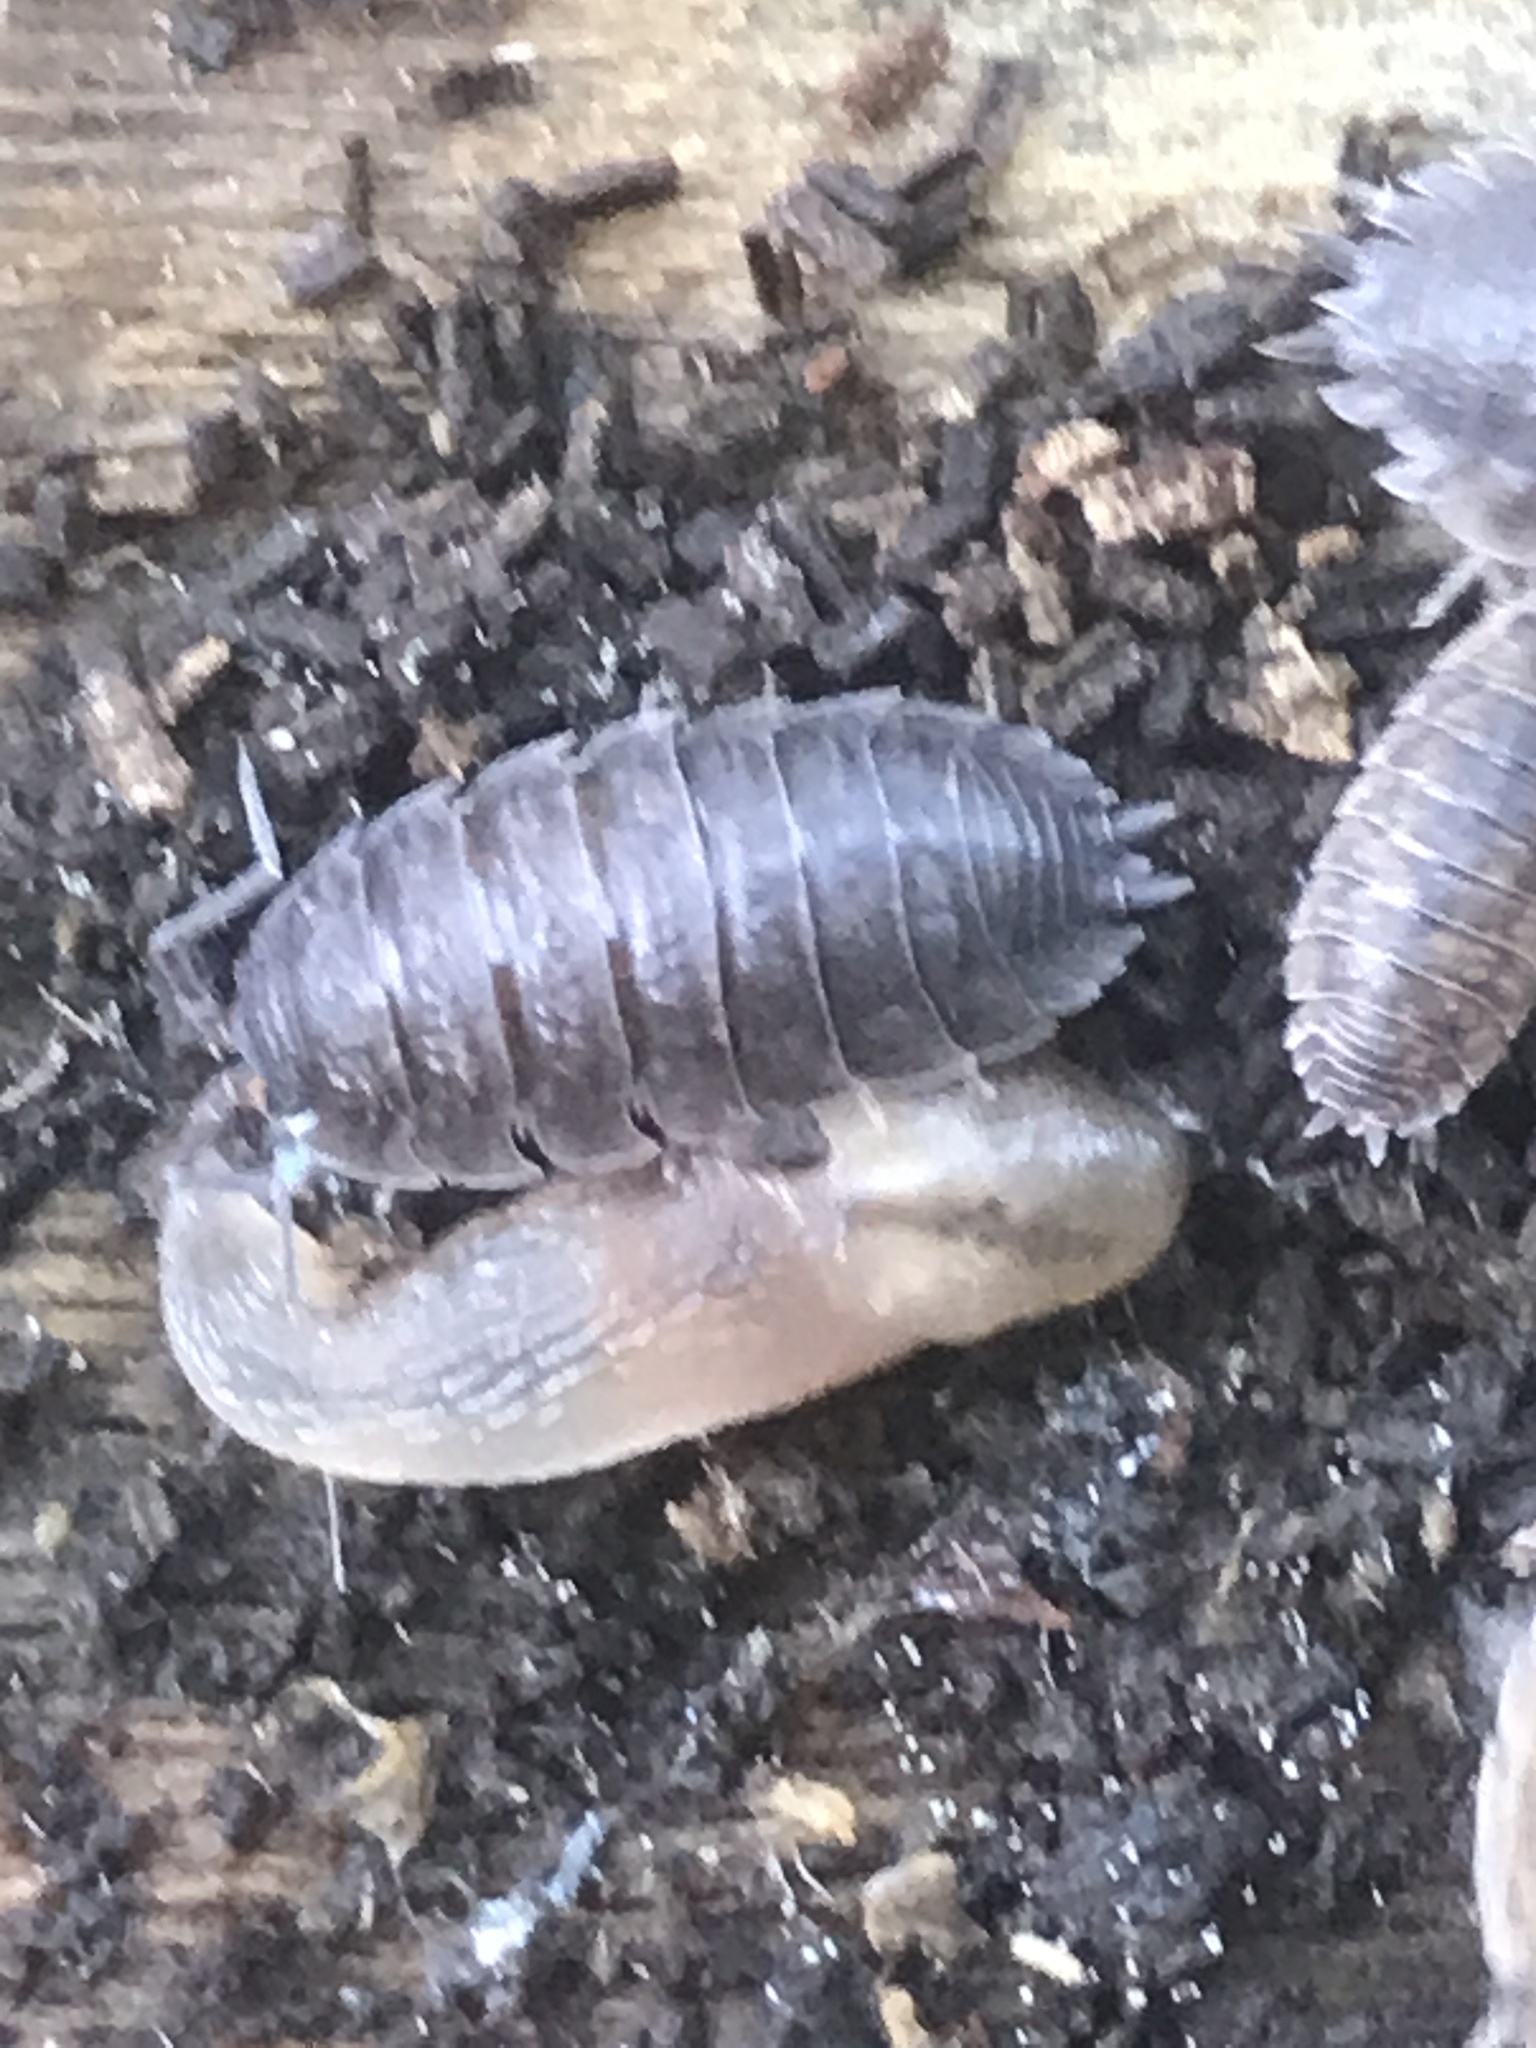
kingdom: Animalia
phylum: Arthropoda
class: Malacostraca
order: Isopoda
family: Porcellionidae
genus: Porcellio
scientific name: Porcellio scaber
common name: Common rough woodlouse
